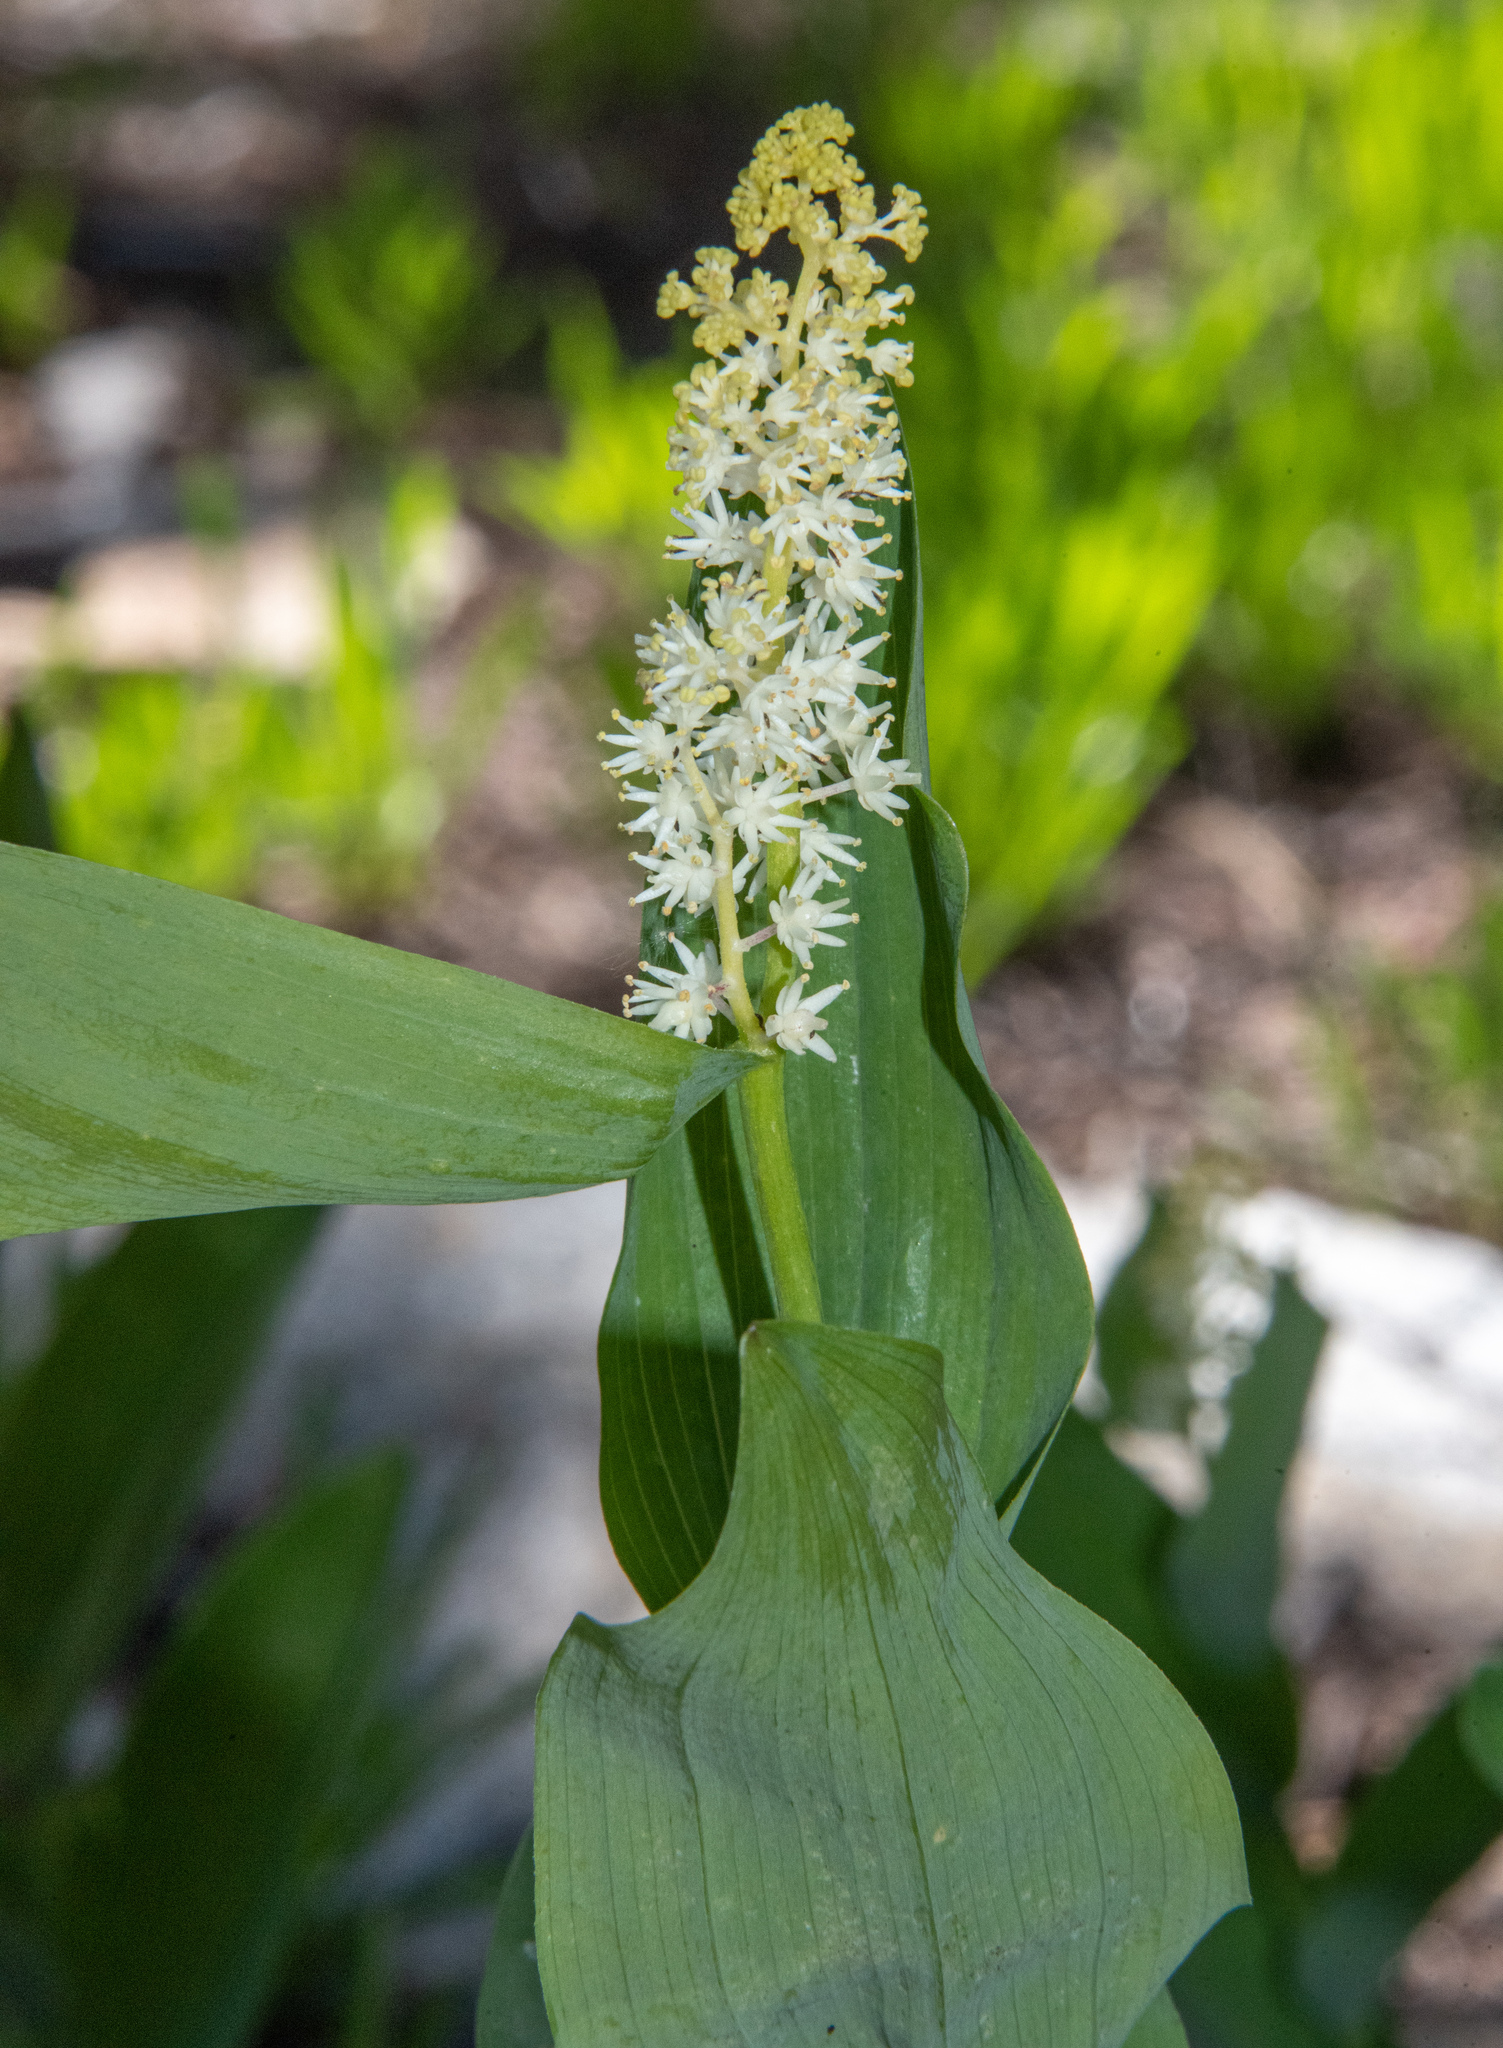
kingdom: Plantae
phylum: Tracheophyta
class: Liliopsida
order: Asparagales
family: Asparagaceae
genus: Maianthemum
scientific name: Maianthemum racemosum
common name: False spikenard
